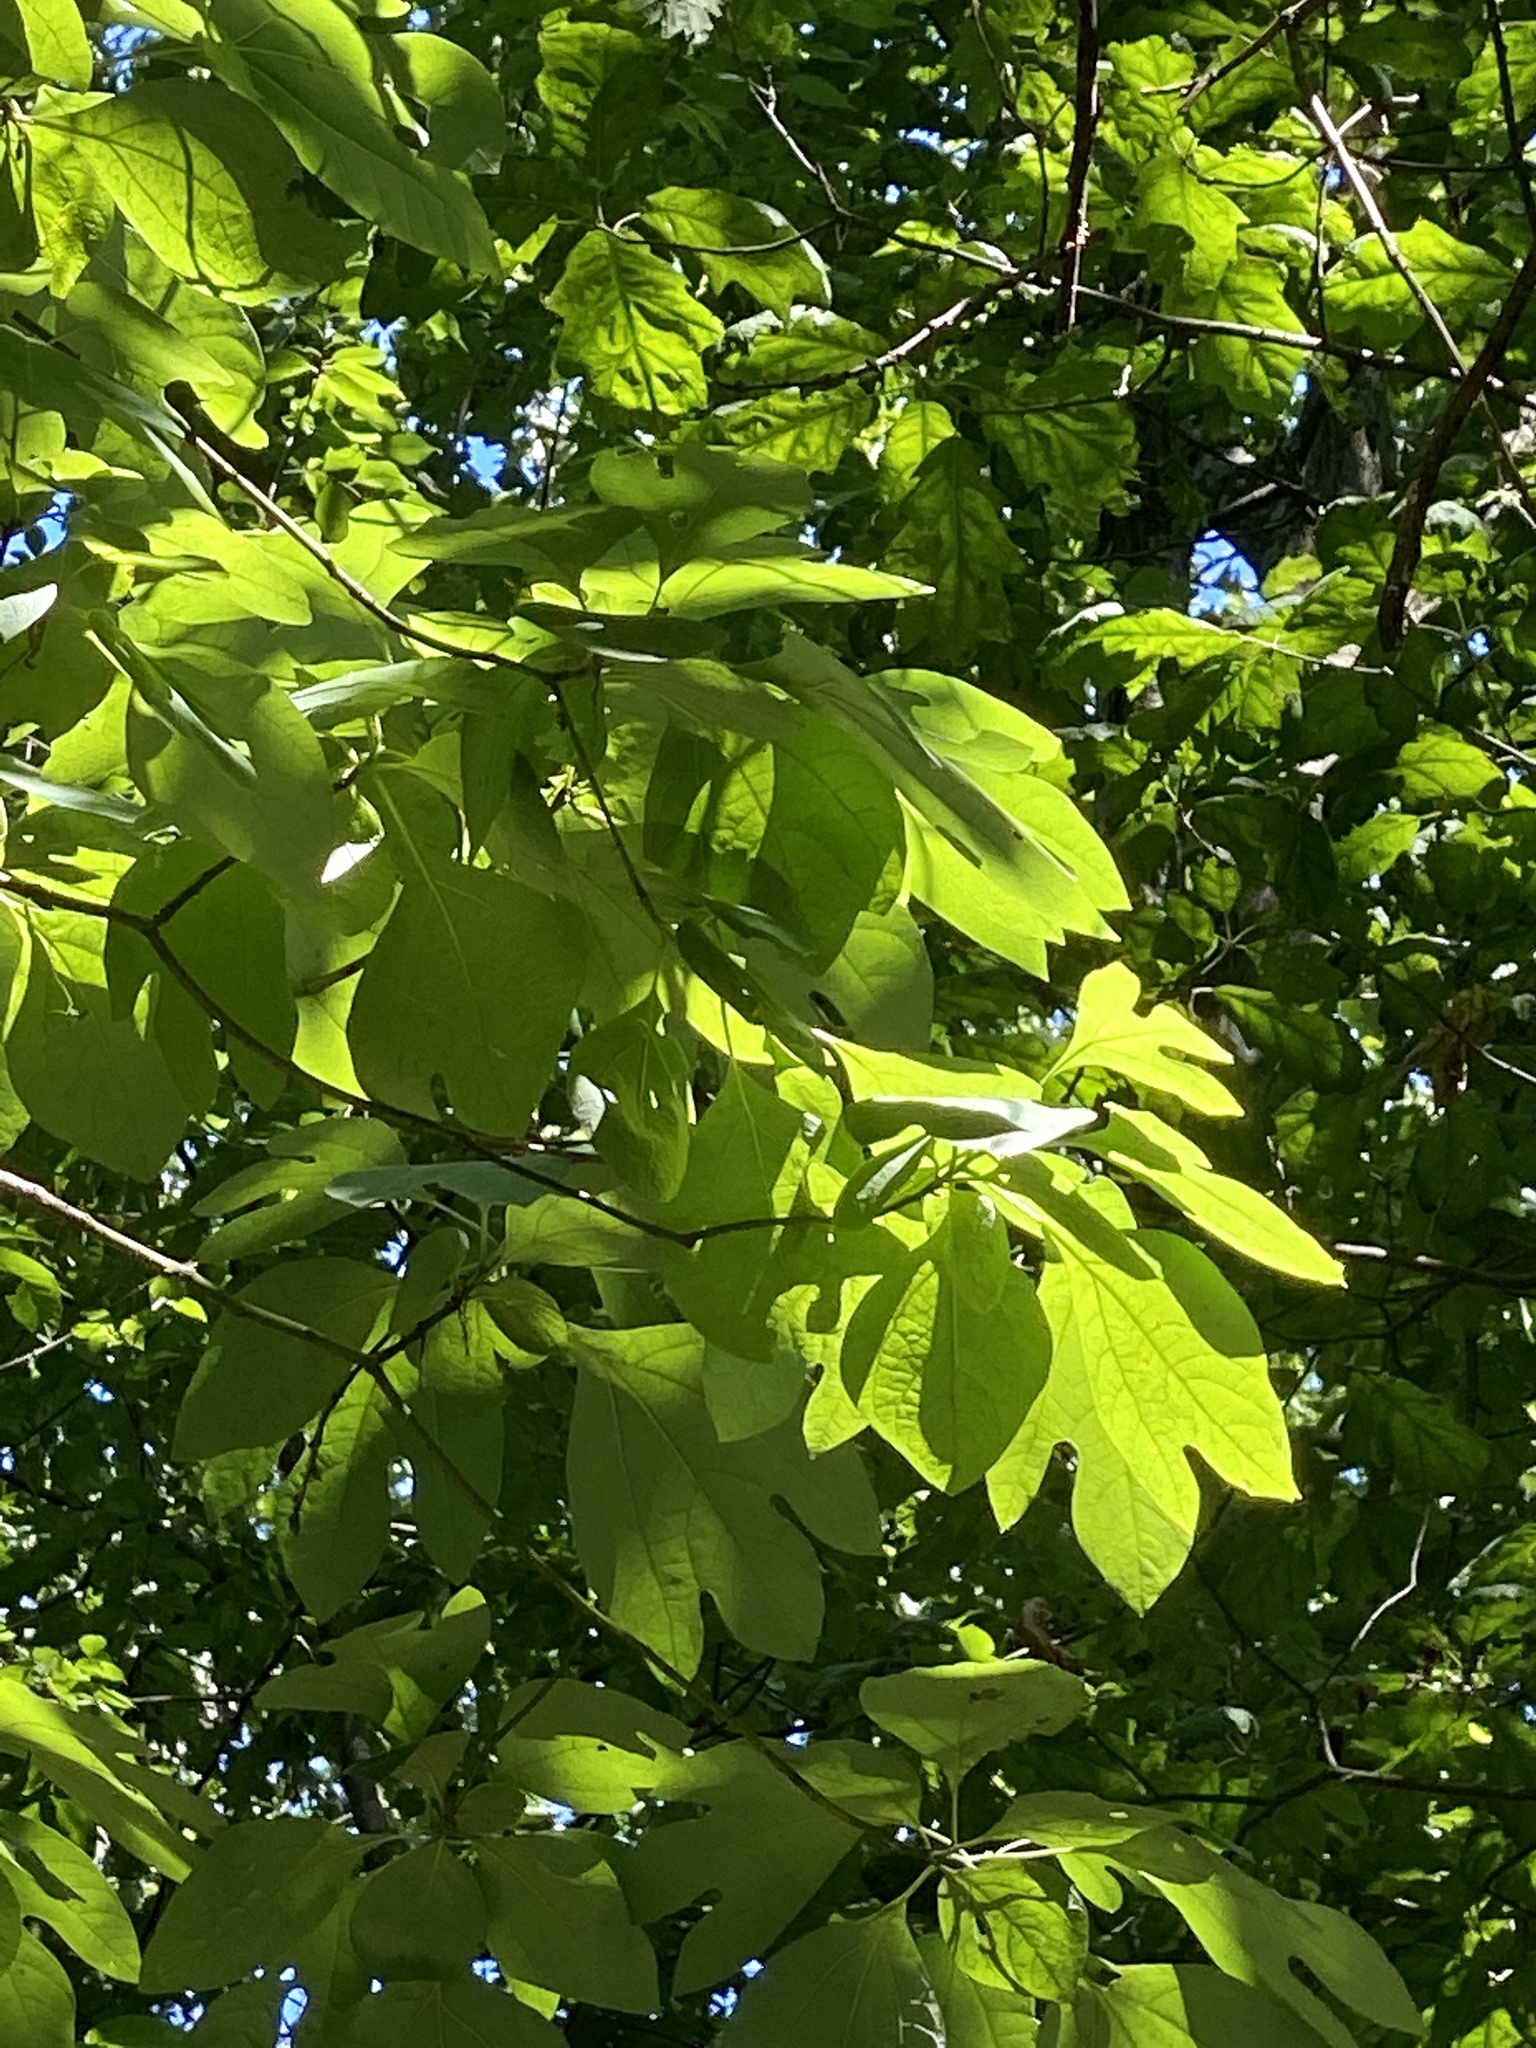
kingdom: Plantae
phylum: Tracheophyta
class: Magnoliopsida
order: Laurales
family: Lauraceae
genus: Sassafras
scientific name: Sassafras albidum
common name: Sassafras
